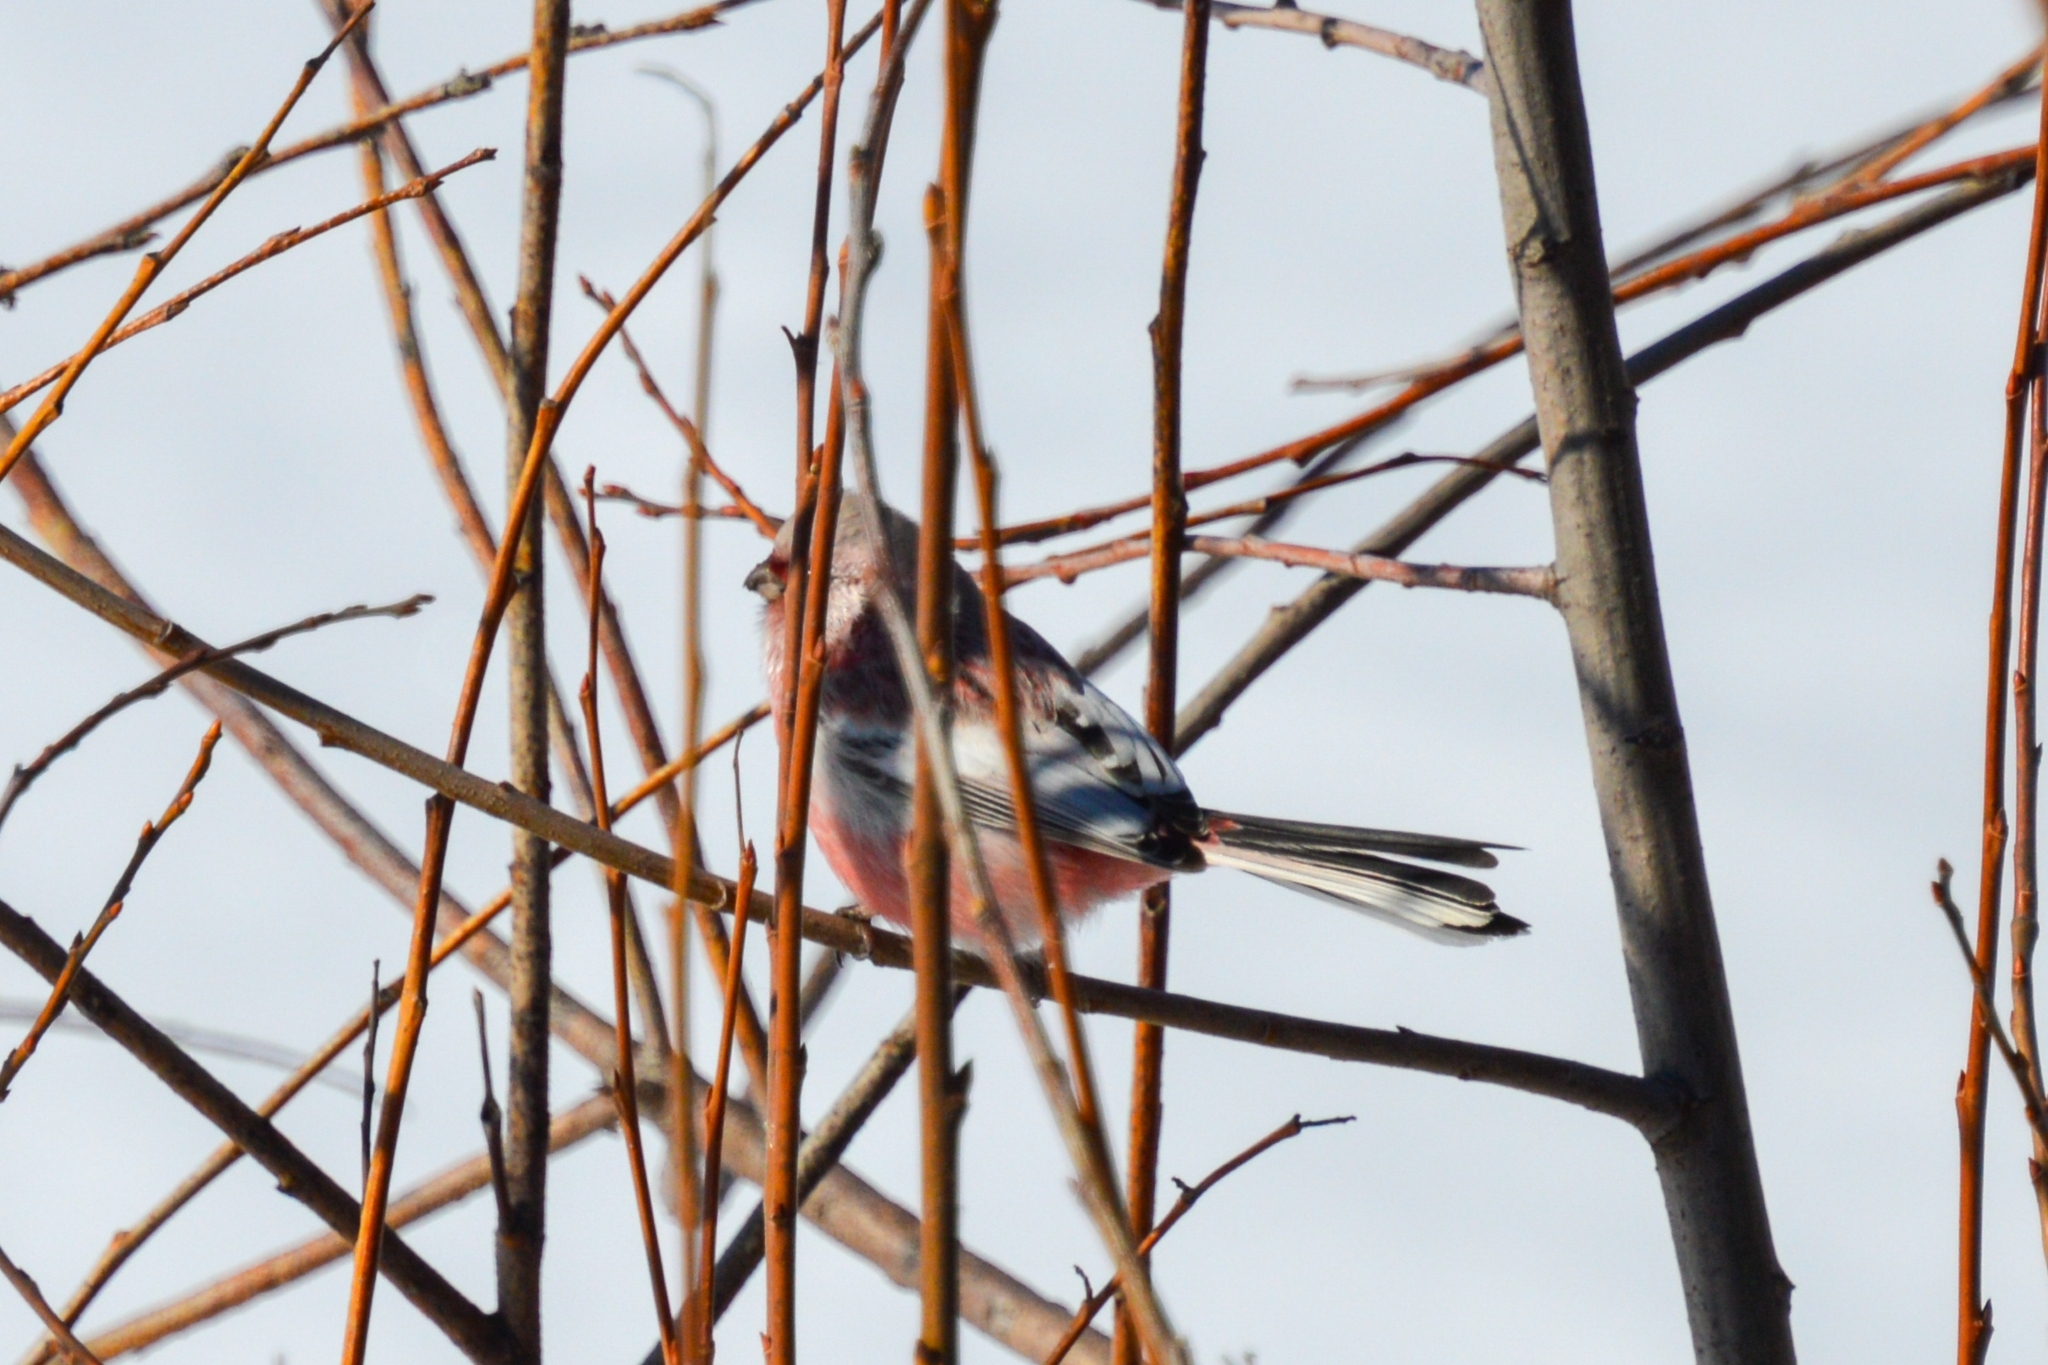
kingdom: Animalia
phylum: Chordata
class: Aves
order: Passeriformes
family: Fringillidae
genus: Carpodacus
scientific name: Carpodacus sibiricus
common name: Long-tailed rosefinch
